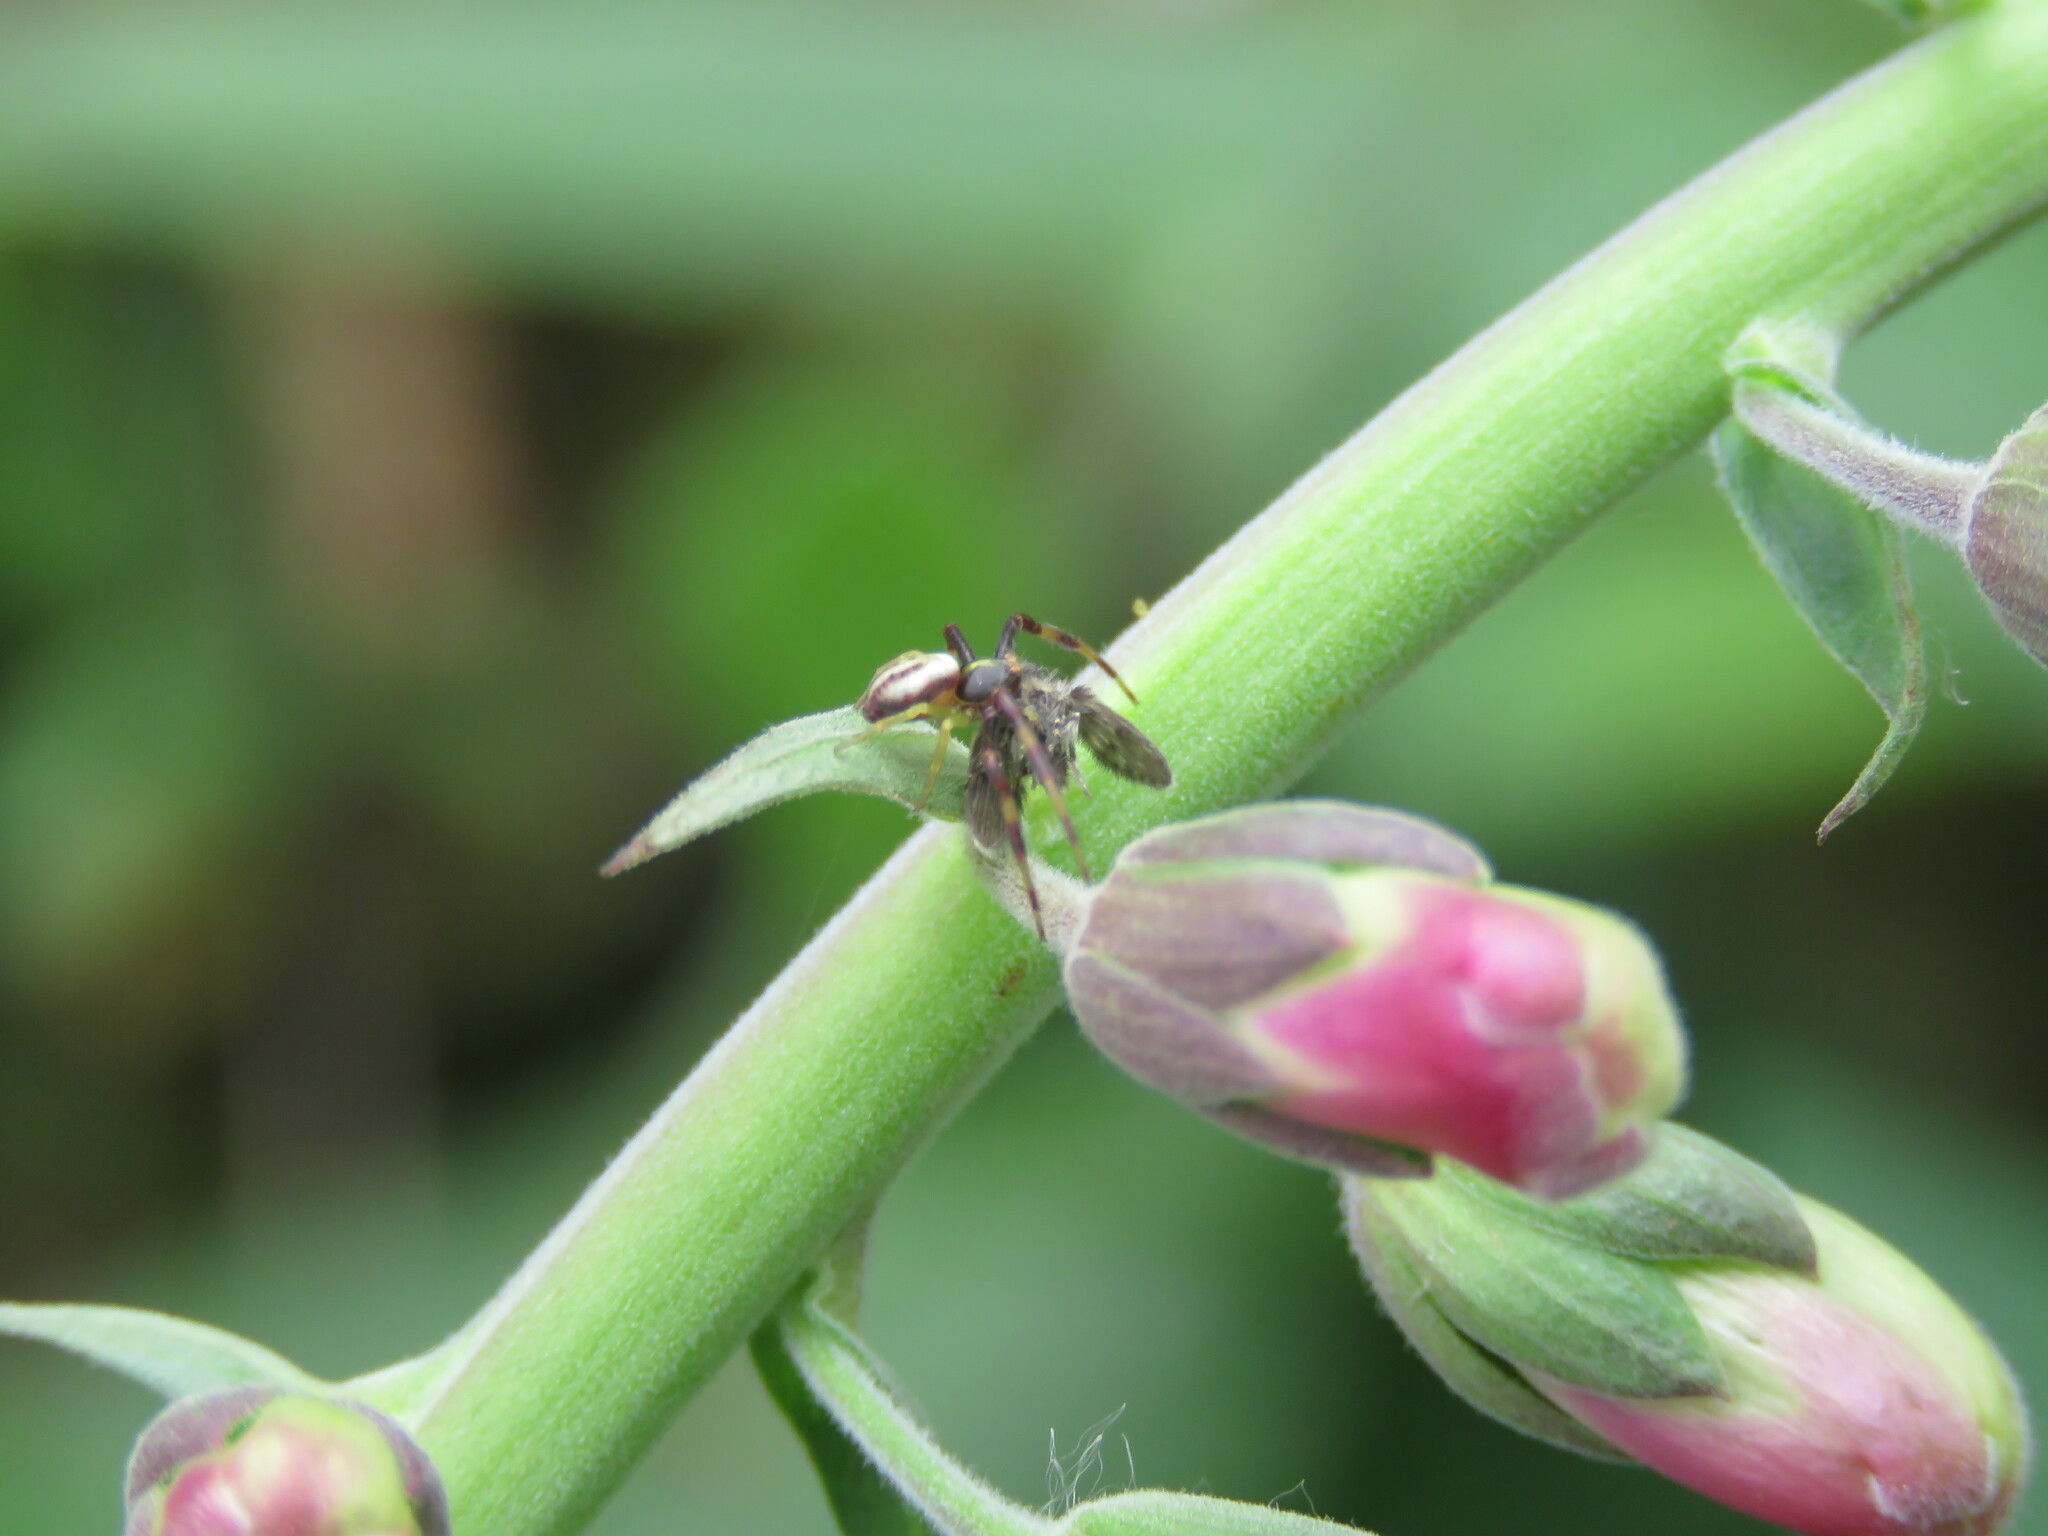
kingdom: Animalia
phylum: Arthropoda
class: Arachnida
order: Araneae
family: Thomisidae
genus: Misumena
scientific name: Misumena vatia
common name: Goldenrod crab spider
